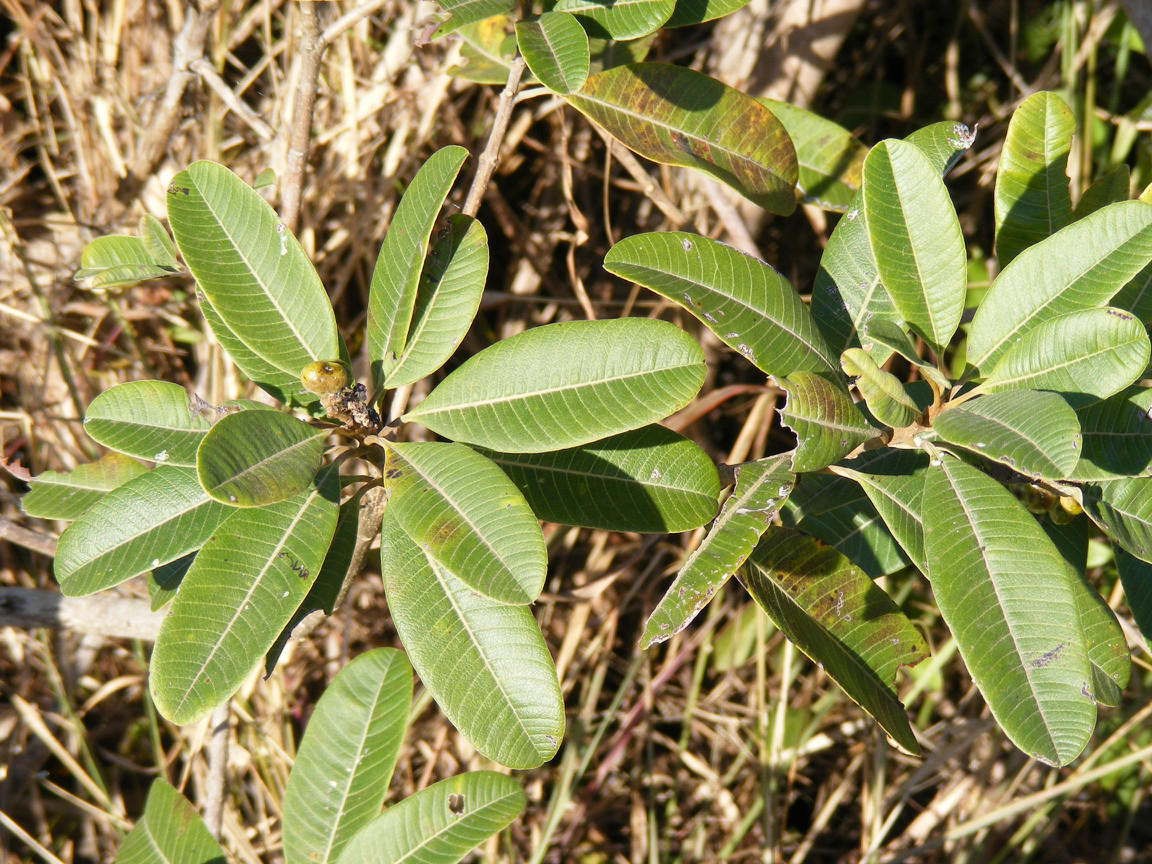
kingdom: Plantae
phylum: Tracheophyta
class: Magnoliopsida
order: Sapindales
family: Anacardiaceae
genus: Ozoroa
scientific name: Ozoroa obovata
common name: Broad-leaved resin tree
